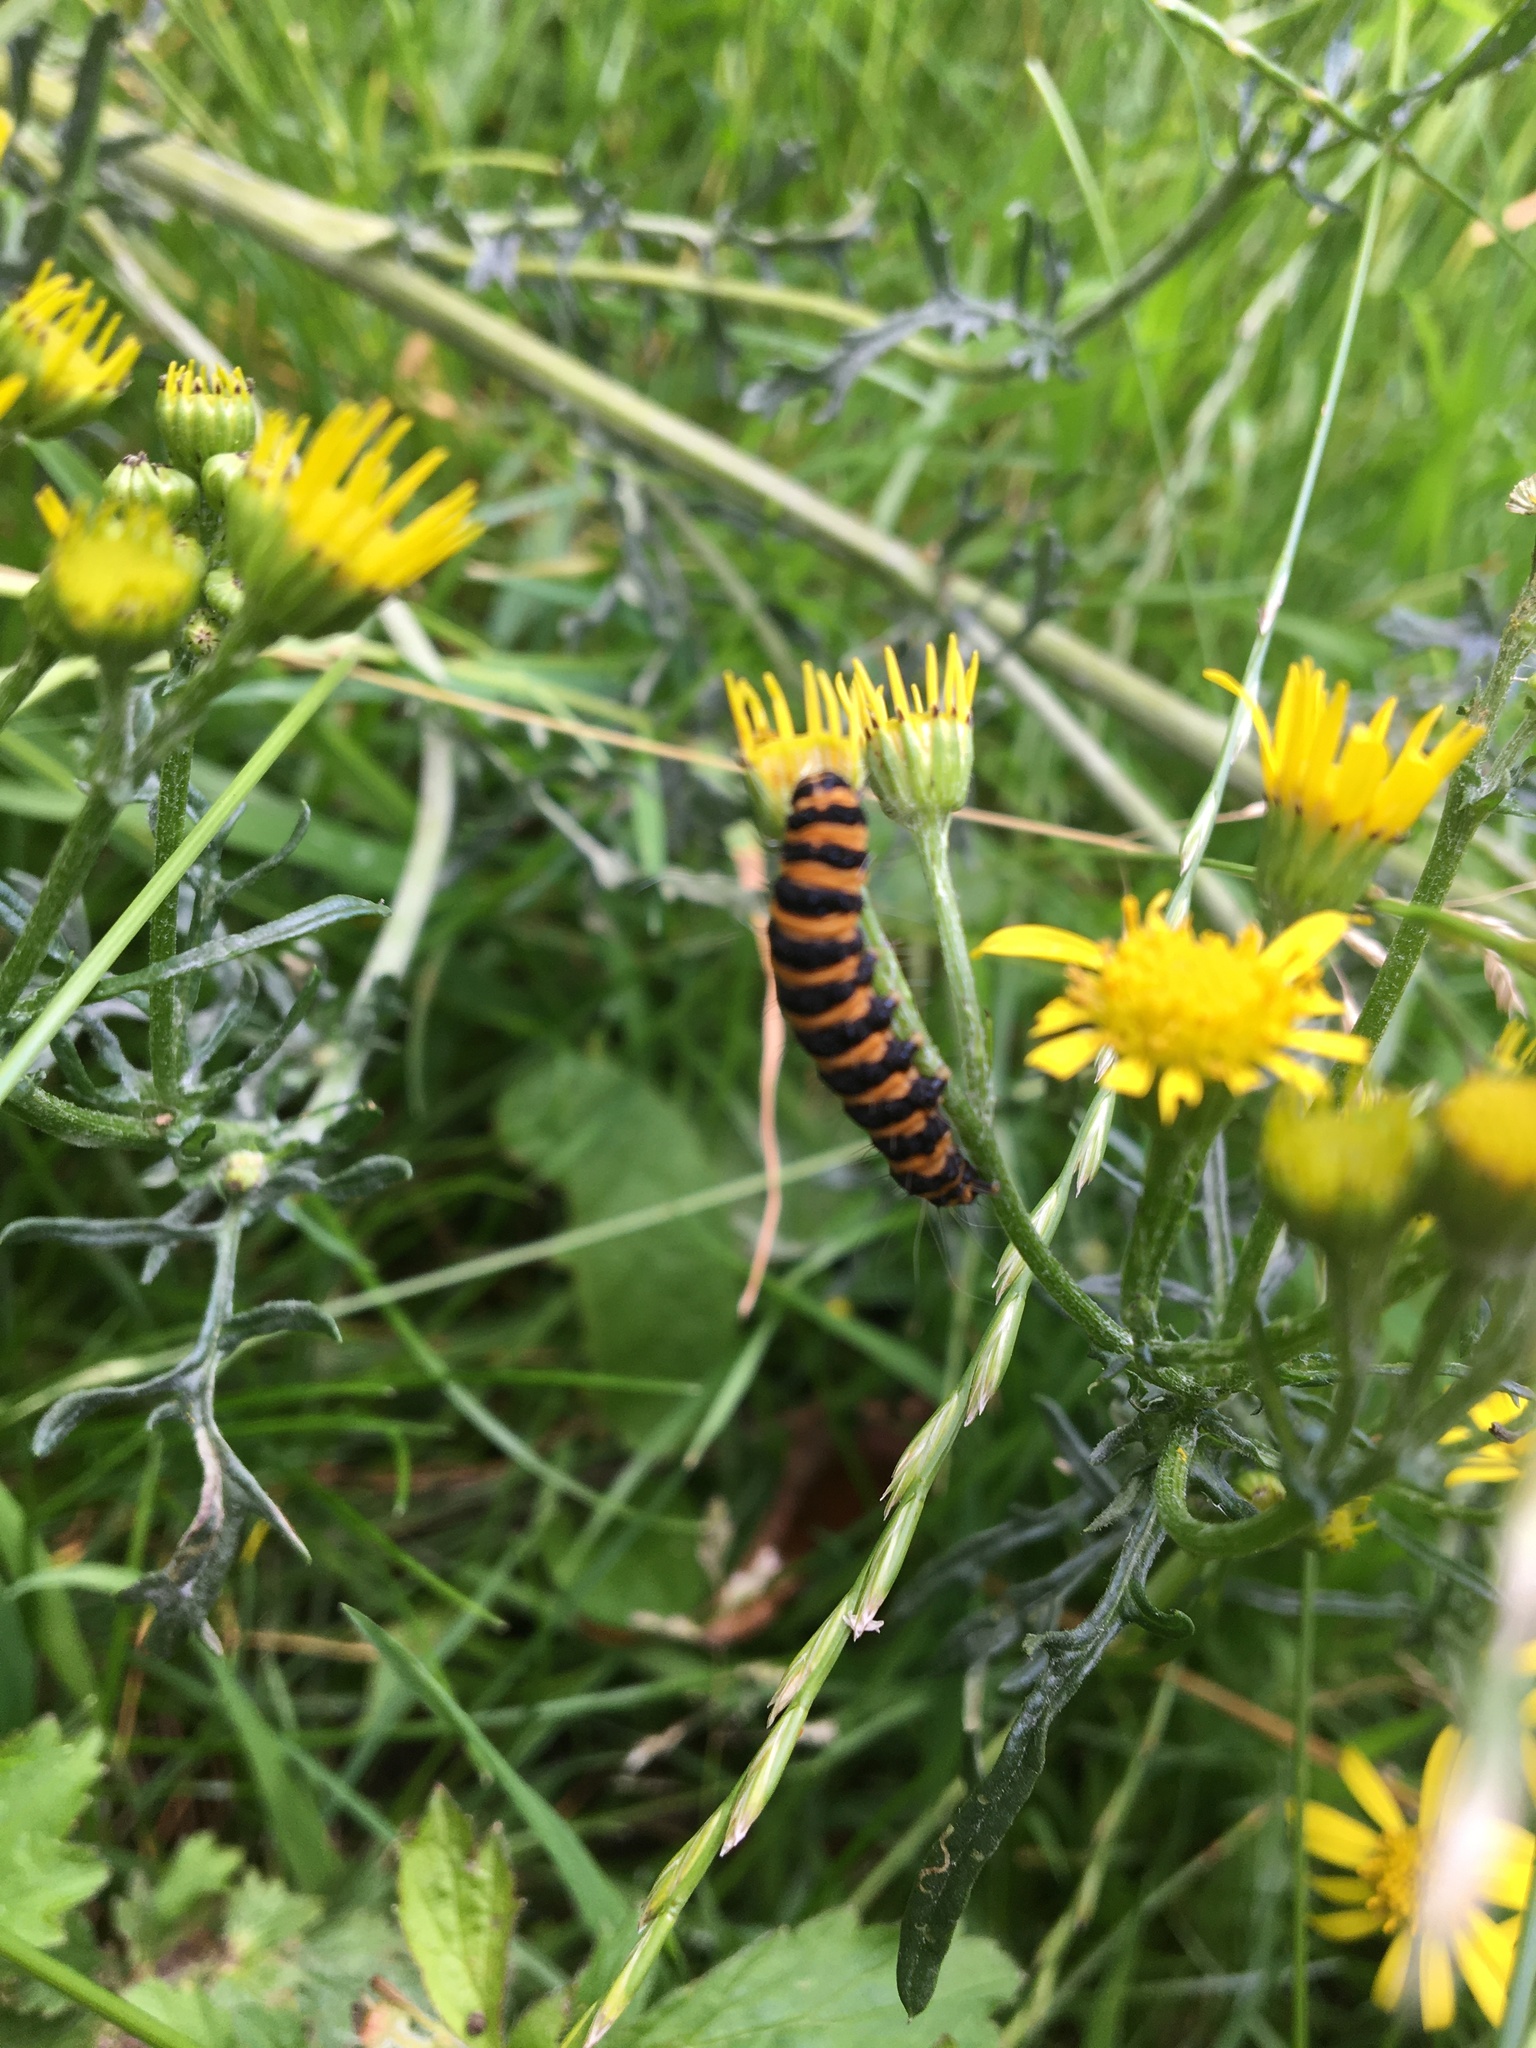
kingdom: Animalia
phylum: Arthropoda
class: Insecta
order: Lepidoptera
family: Erebidae
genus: Tyria
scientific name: Tyria jacobaeae
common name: Cinnabar
